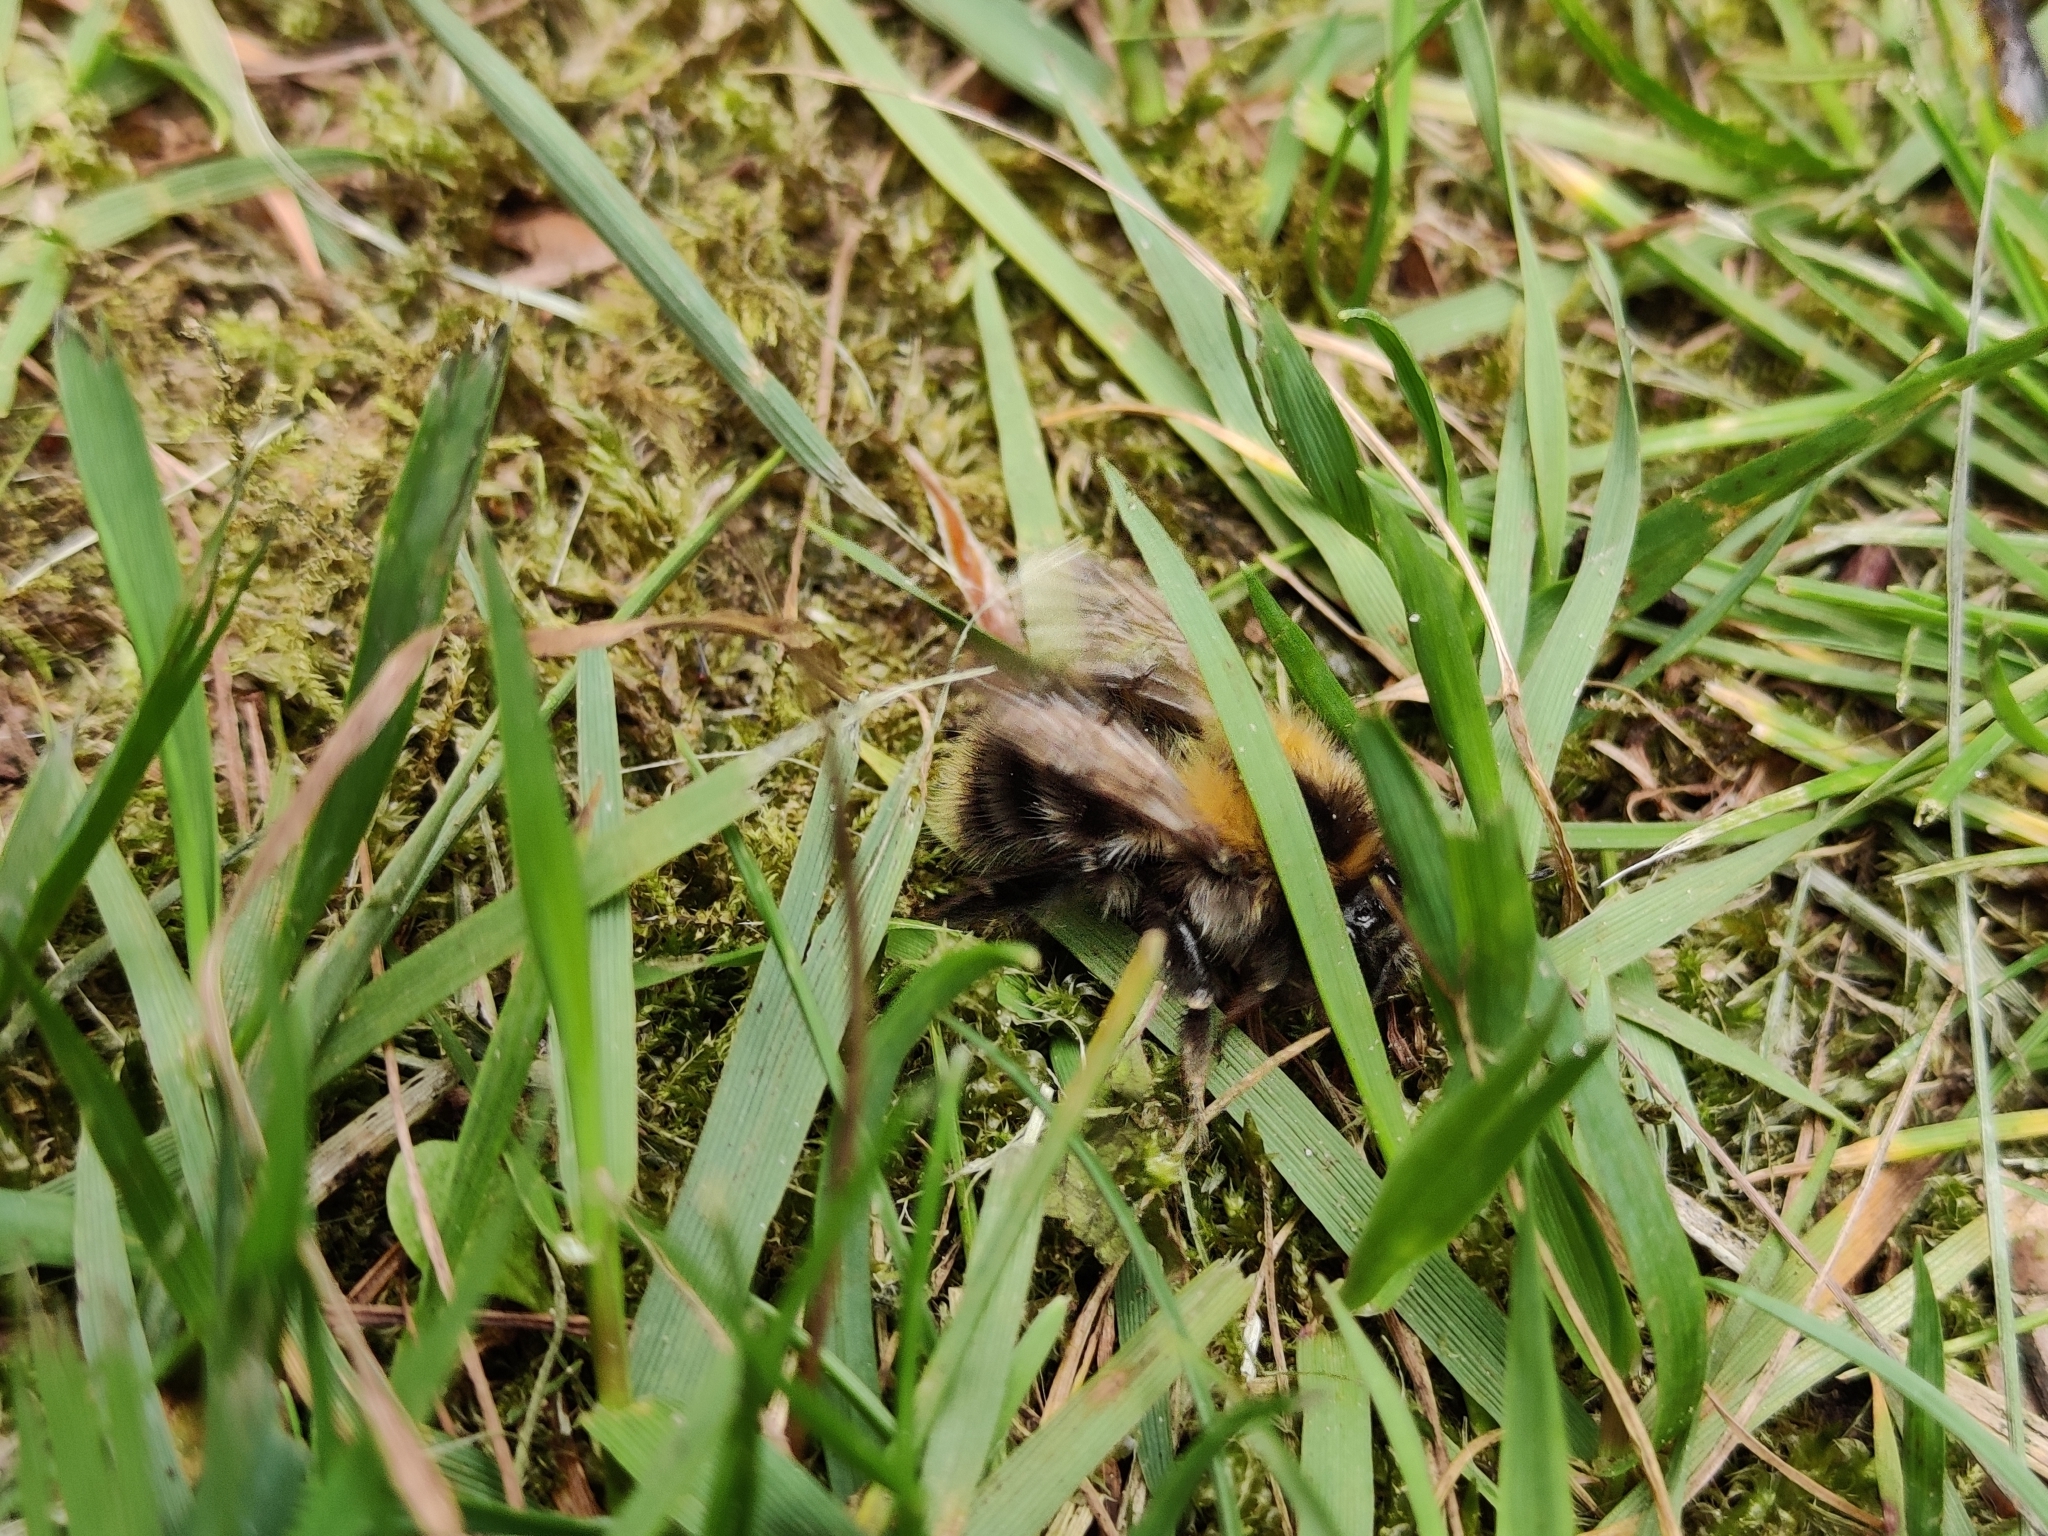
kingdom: Animalia
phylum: Arthropoda
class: Insecta
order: Hymenoptera
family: Apidae
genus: Bombus
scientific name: Bombus pascuorum
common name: Common carder bee
